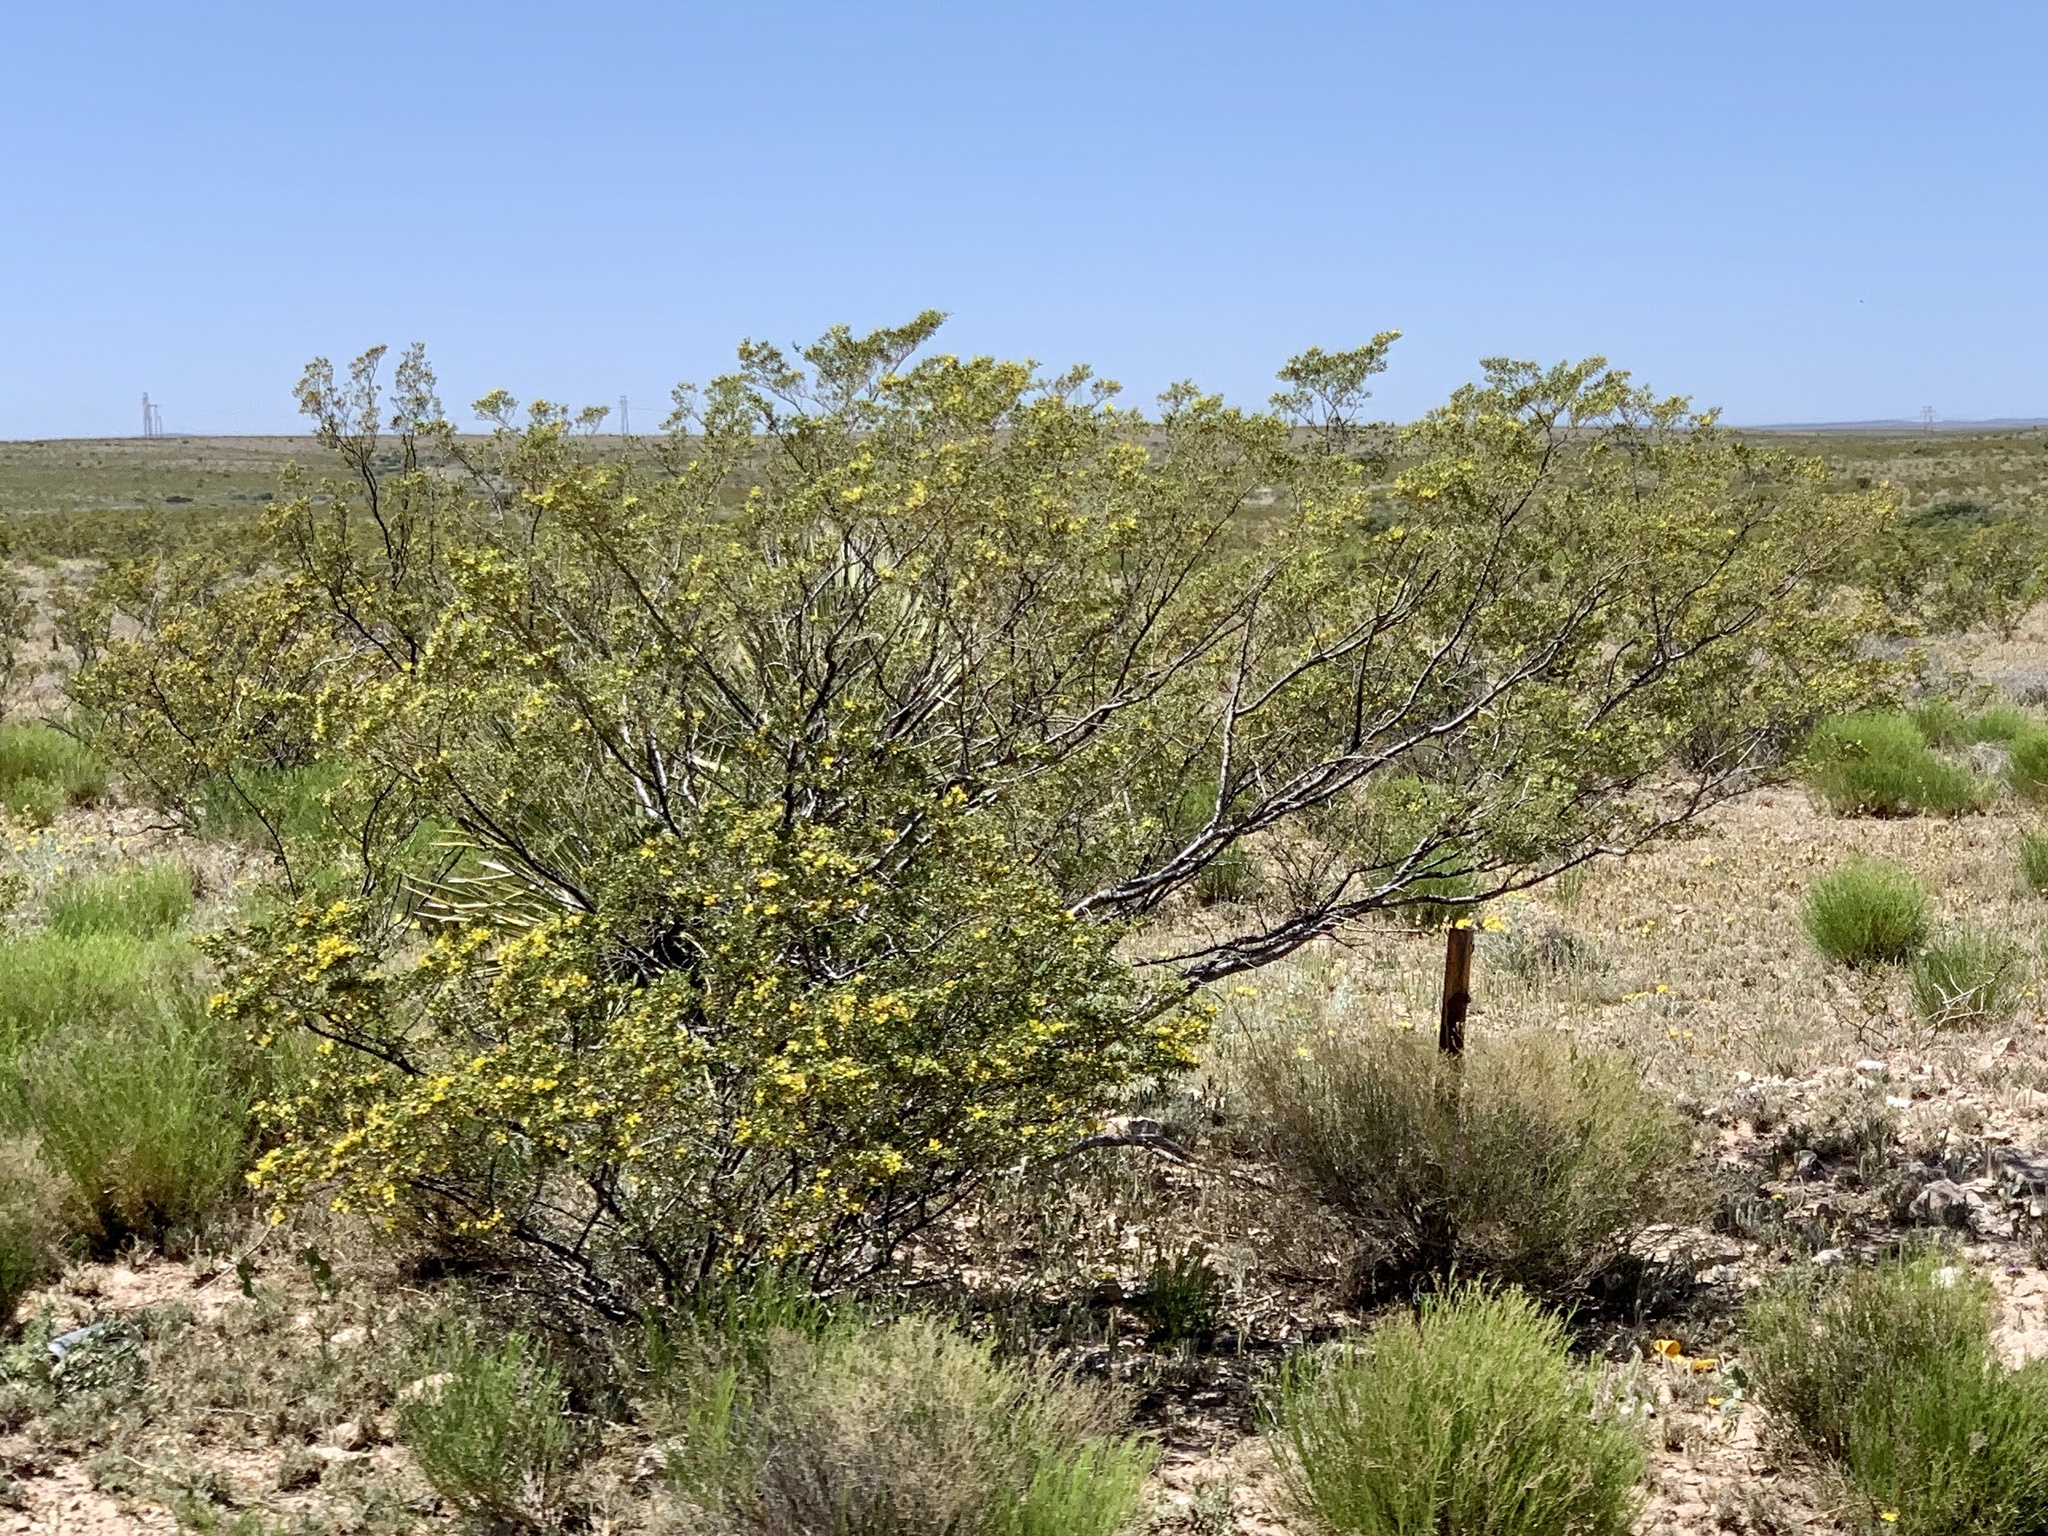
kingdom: Plantae
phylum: Tracheophyta
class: Magnoliopsida
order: Zygophyllales
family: Zygophyllaceae
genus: Larrea
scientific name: Larrea tridentata
